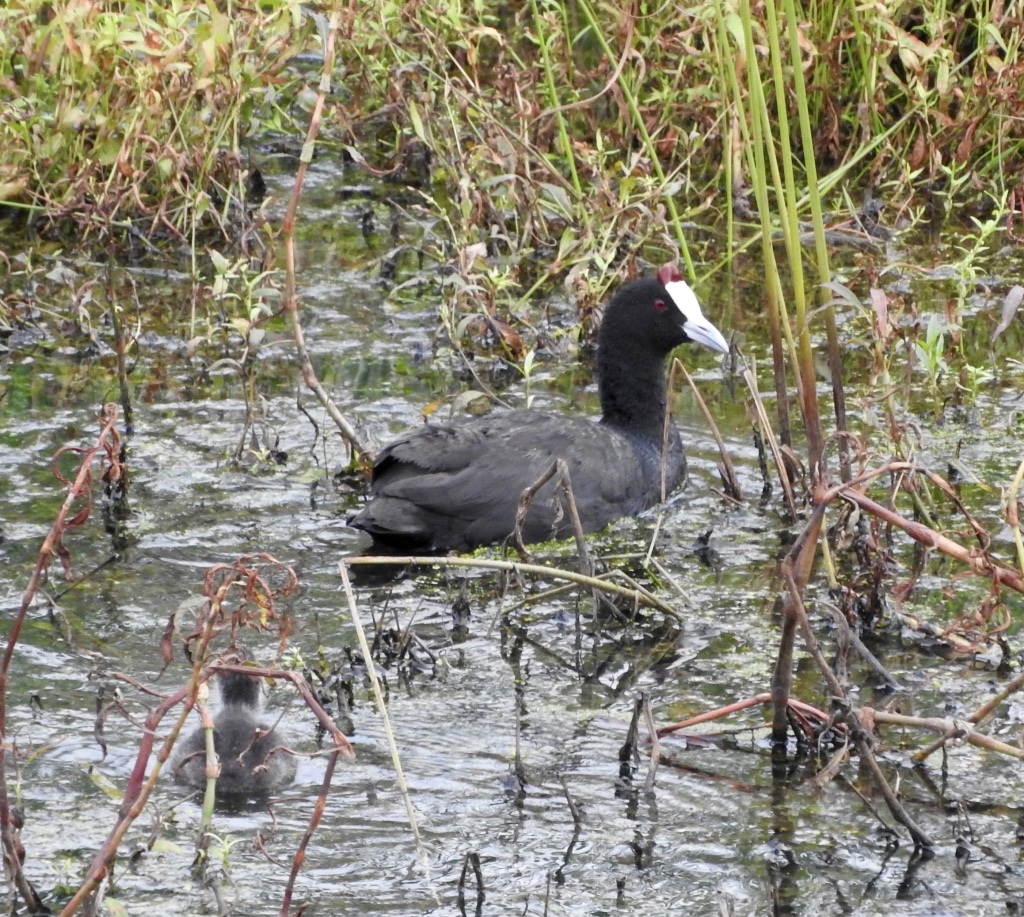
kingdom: Animalia
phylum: Chordata
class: Aves
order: Gruiformes
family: Rallidae
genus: Fulica
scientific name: Fulica cristata
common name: Red-knobbed coot
